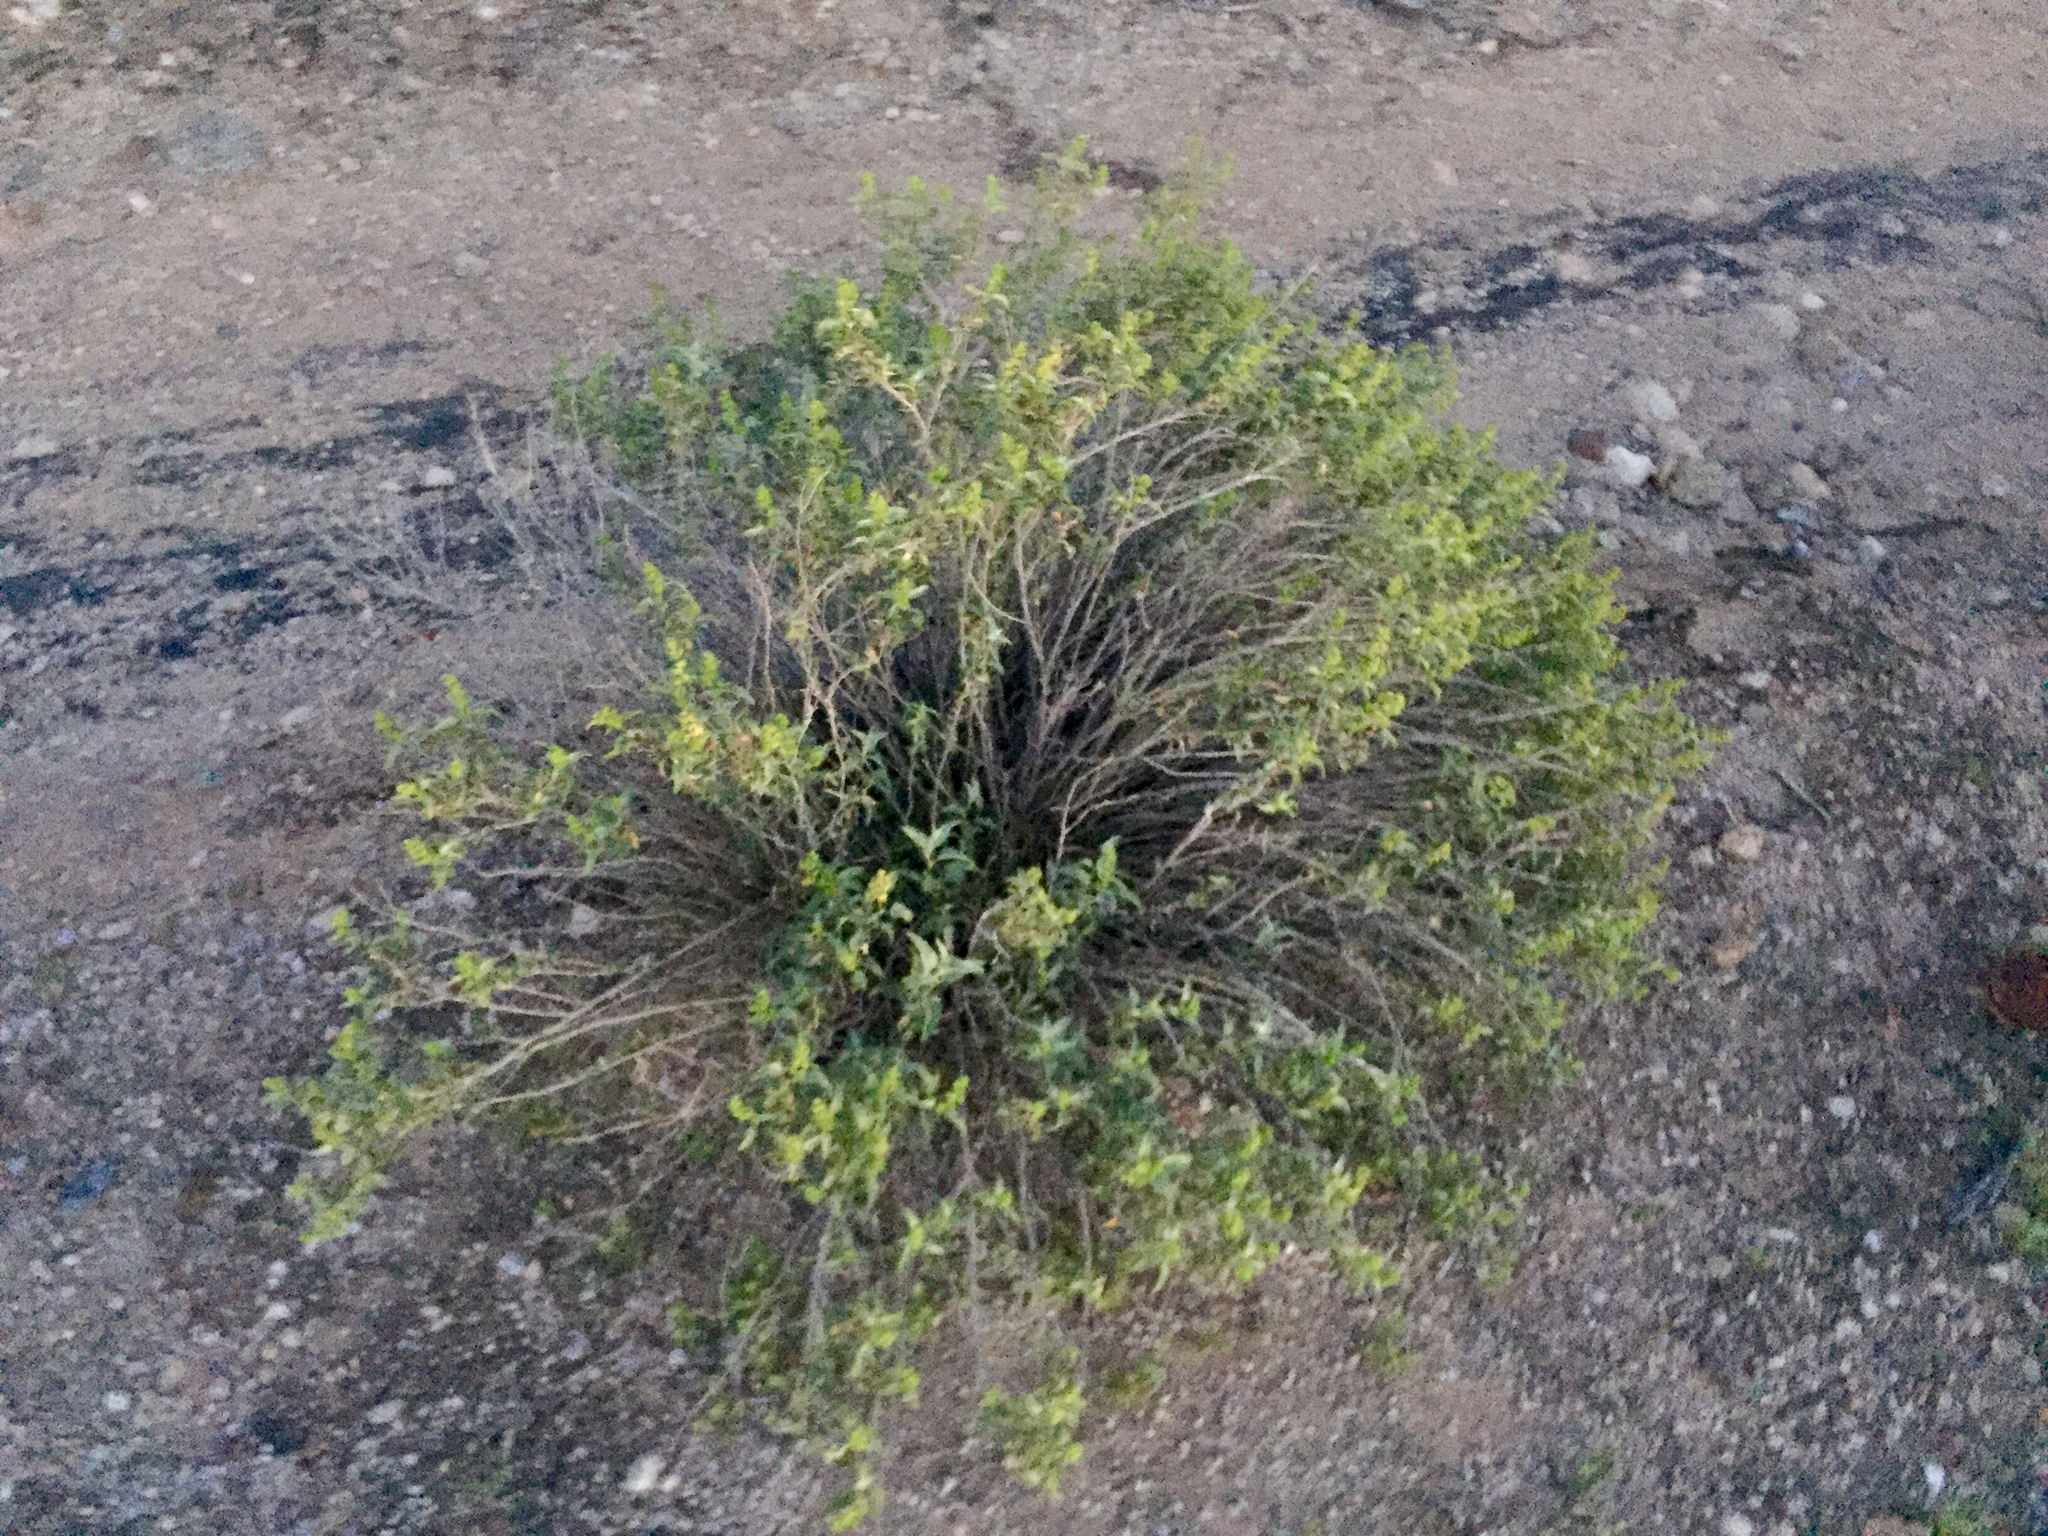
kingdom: Plantae
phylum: Tracheophyta
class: Magnoliopsida
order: Asterales
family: Asteraceae
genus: Ambrosia
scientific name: Ambrosia deltoidea
